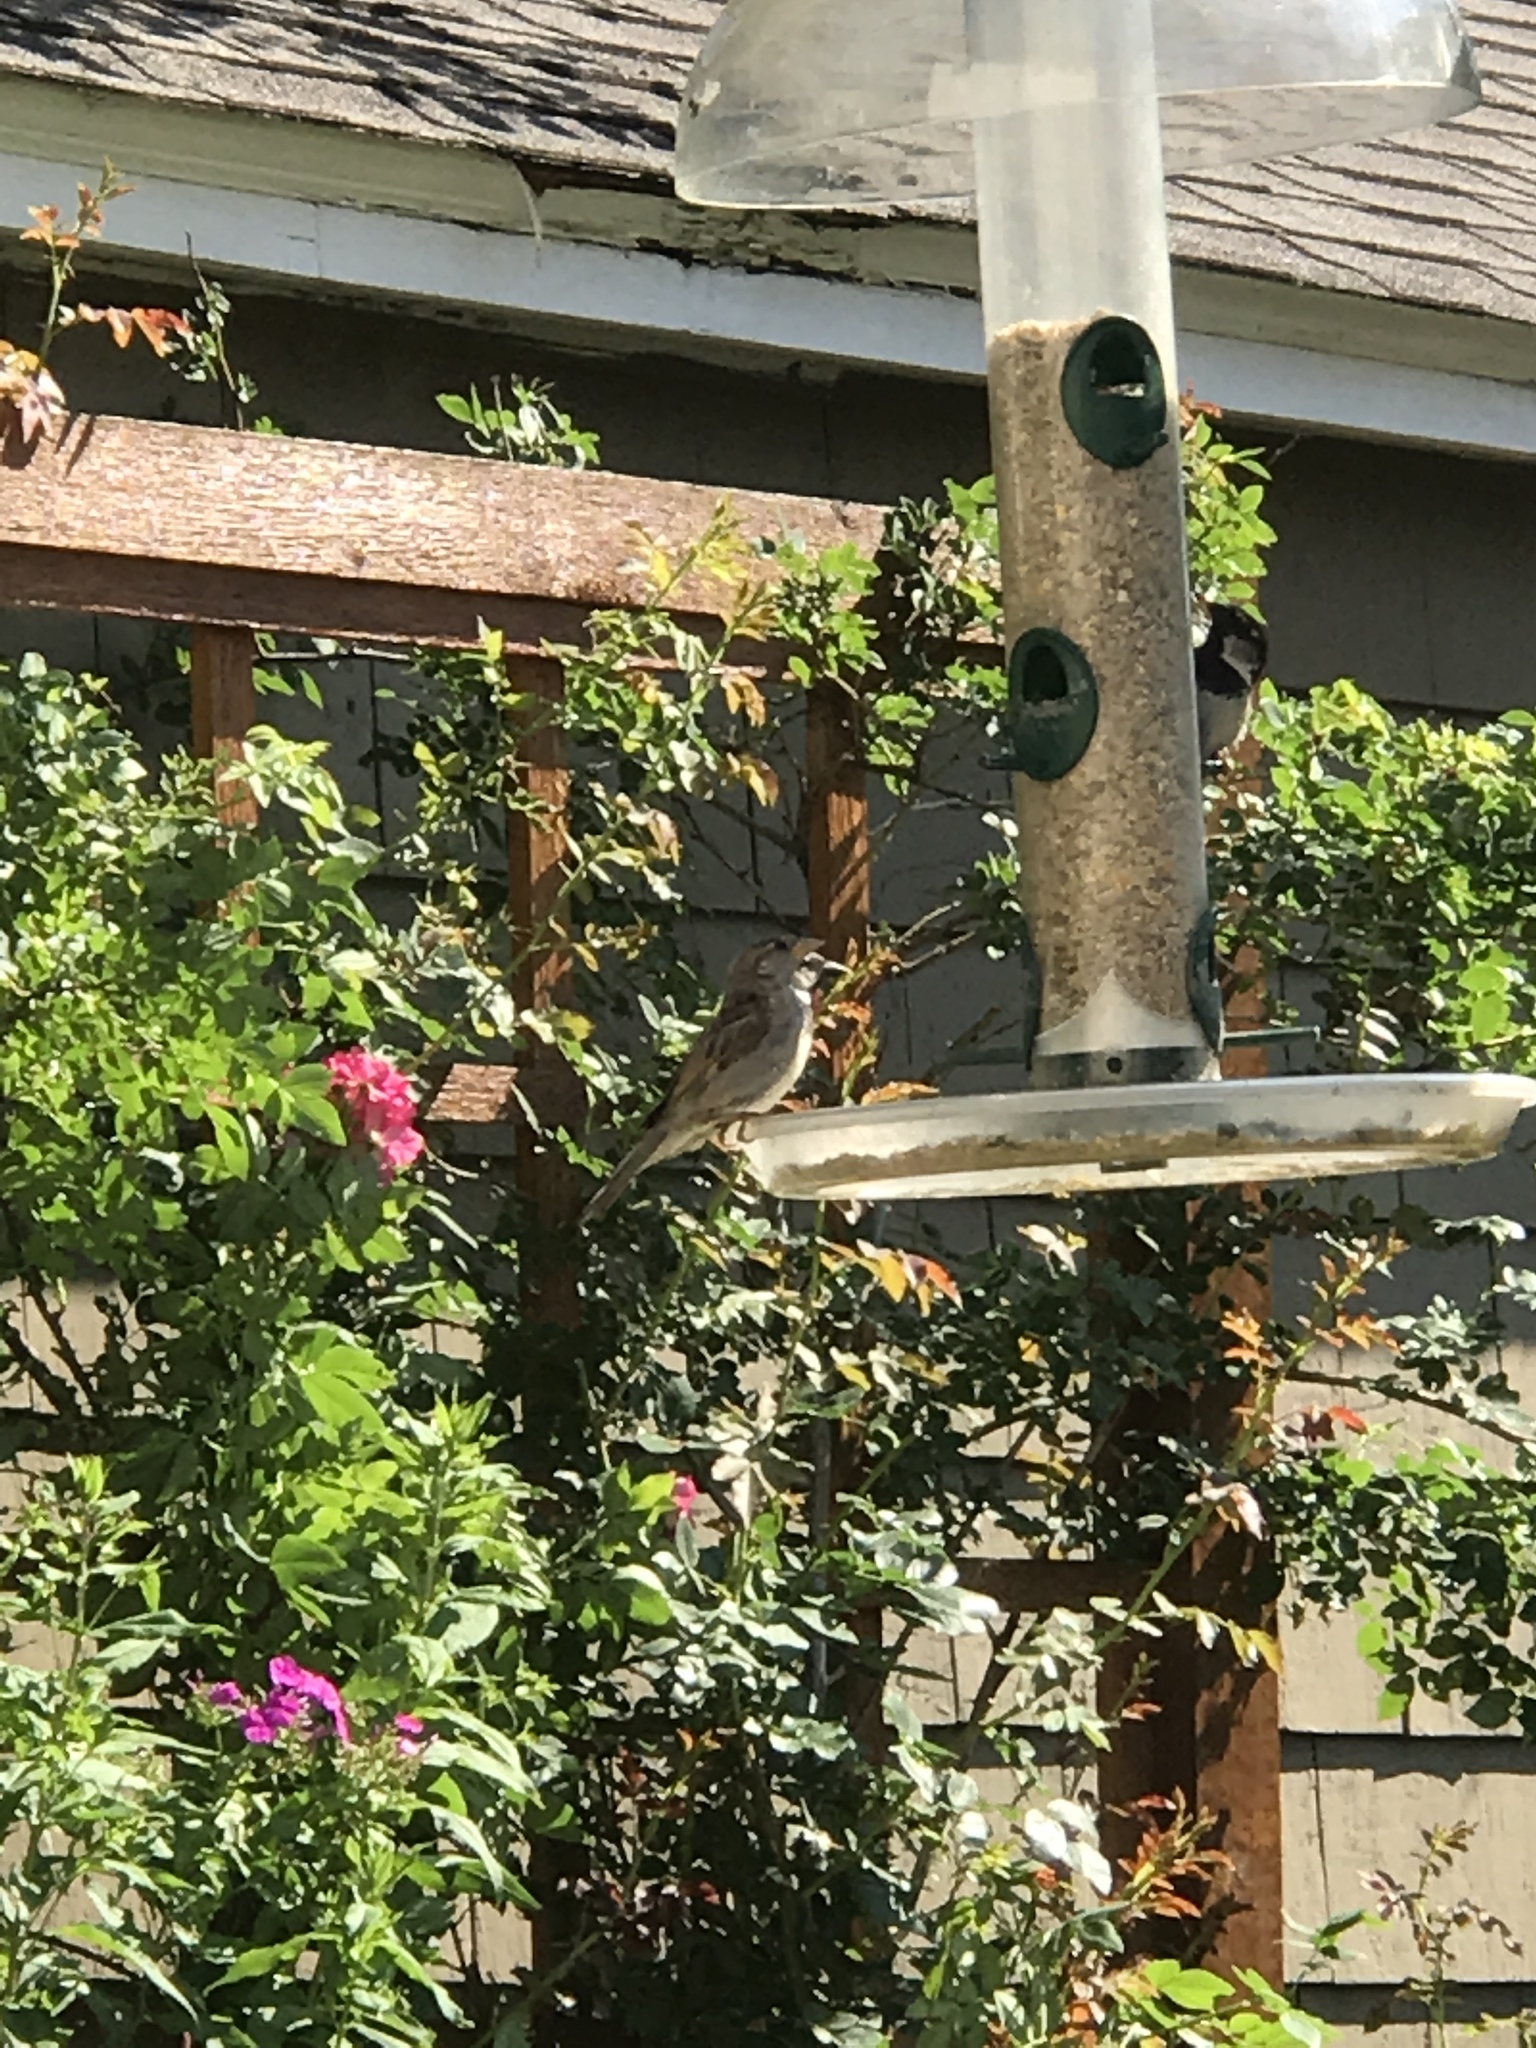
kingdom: Animalia
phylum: Chordata
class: Aves
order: Passeriformes
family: Passeridae
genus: Passer
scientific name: Passer domesticus
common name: House sparrow
